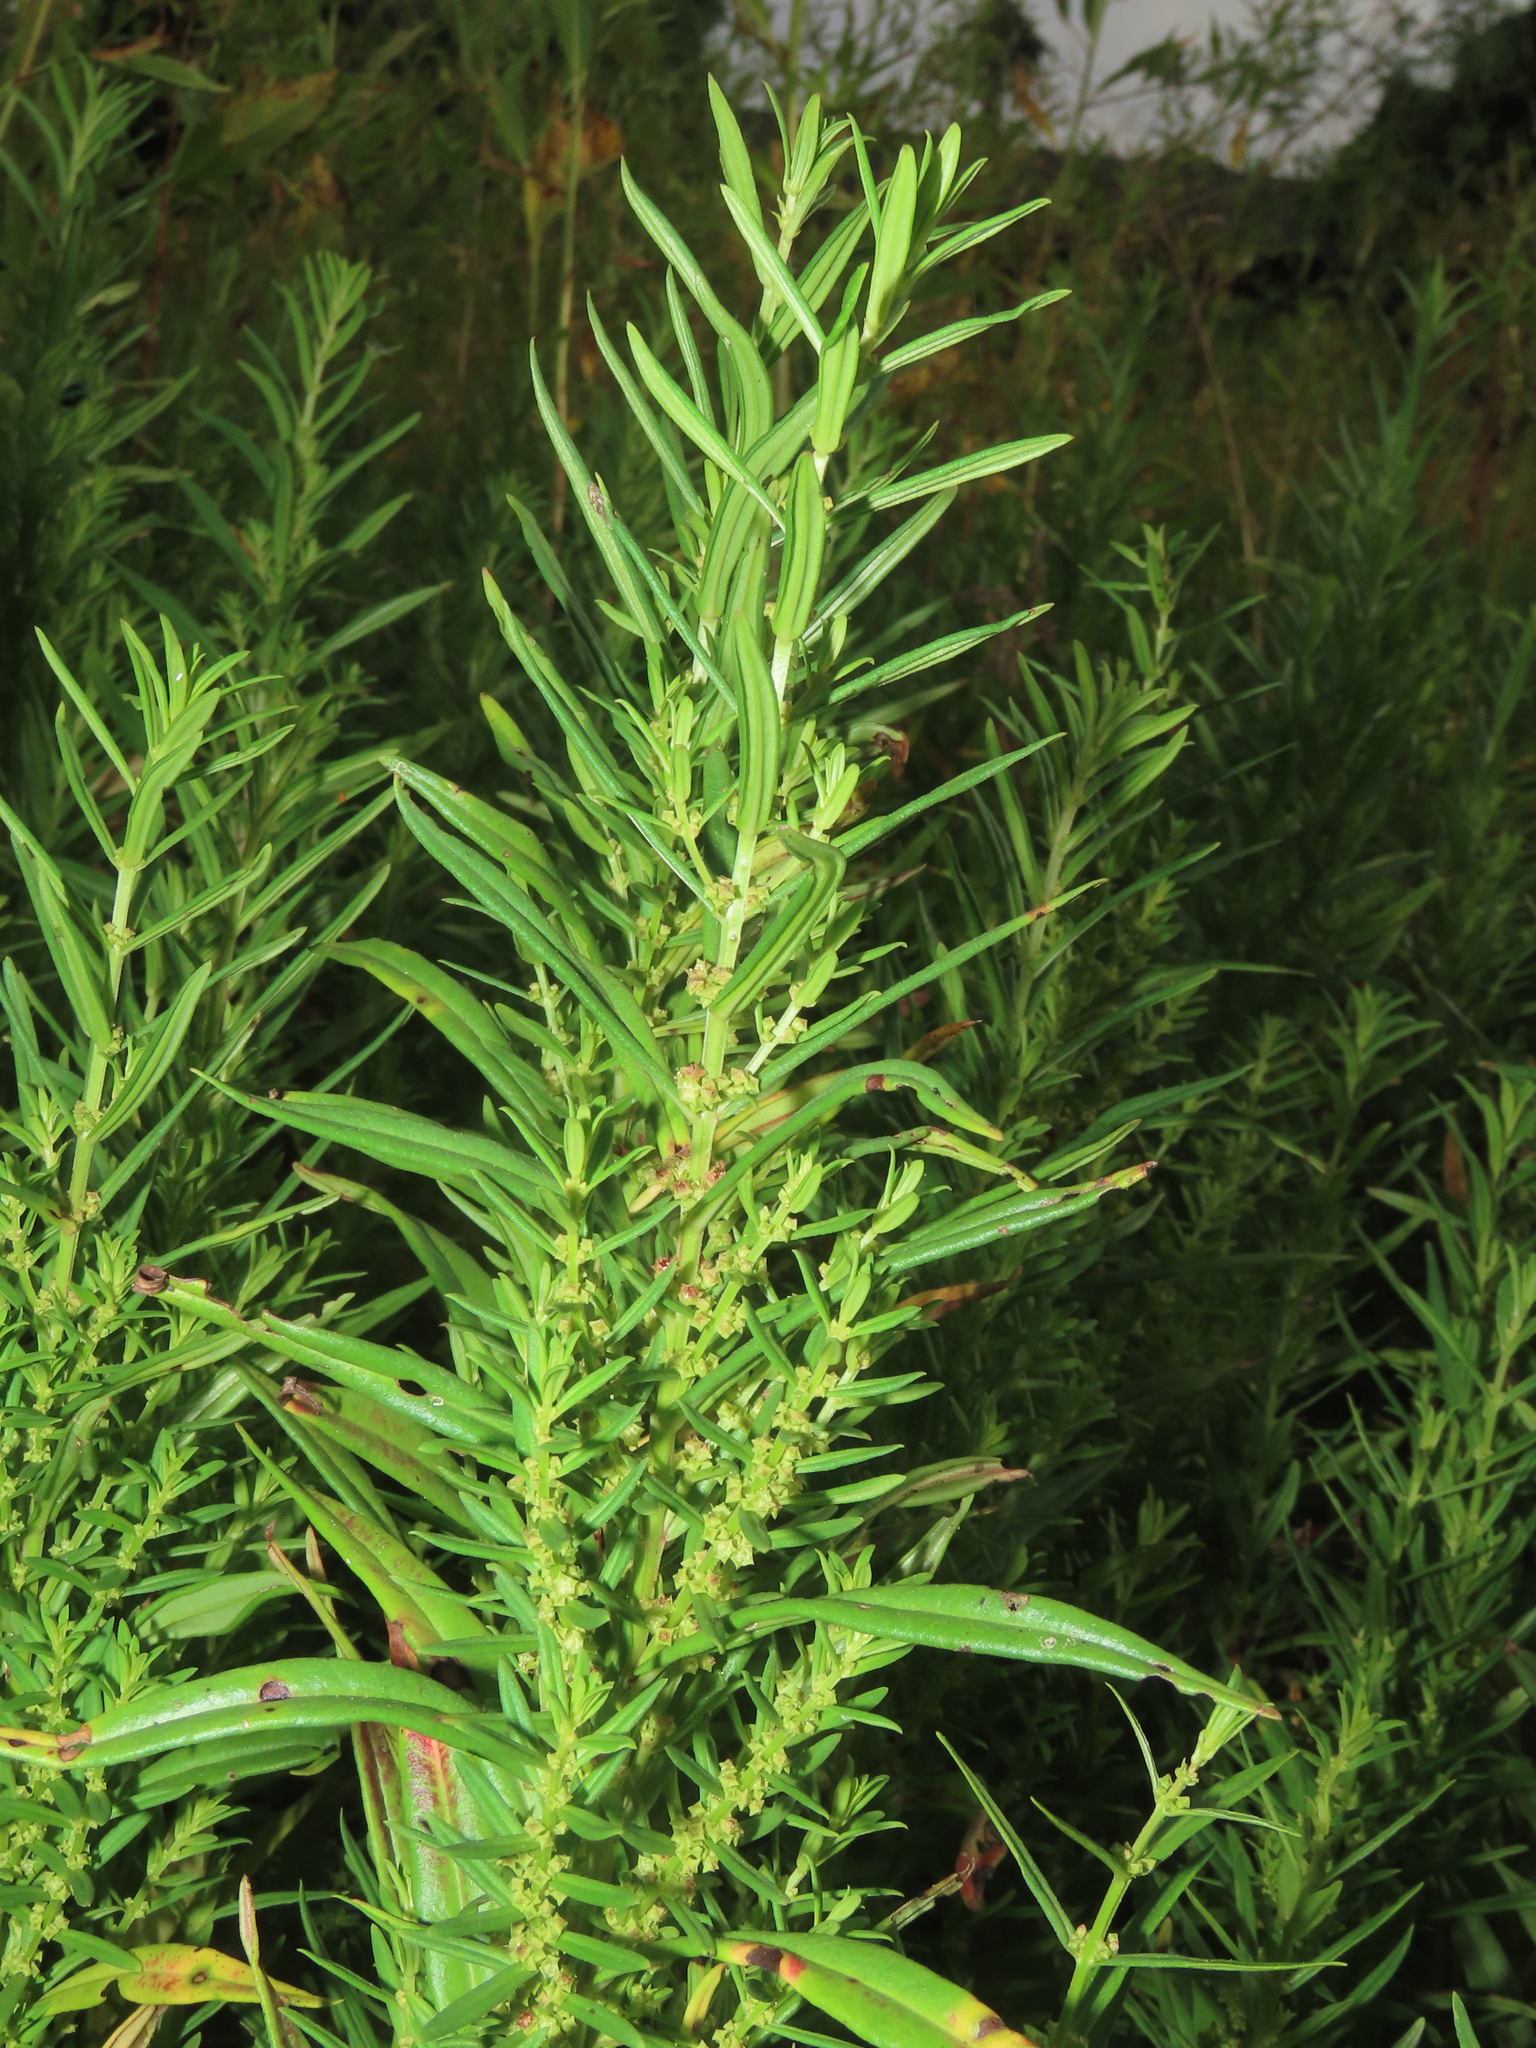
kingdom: Plantae
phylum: Tracheophyta
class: Magnoliopsida
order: Myrtales
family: Lythraceae
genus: Ammannia
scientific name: Ammannia baccifera
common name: Blistering ammania
